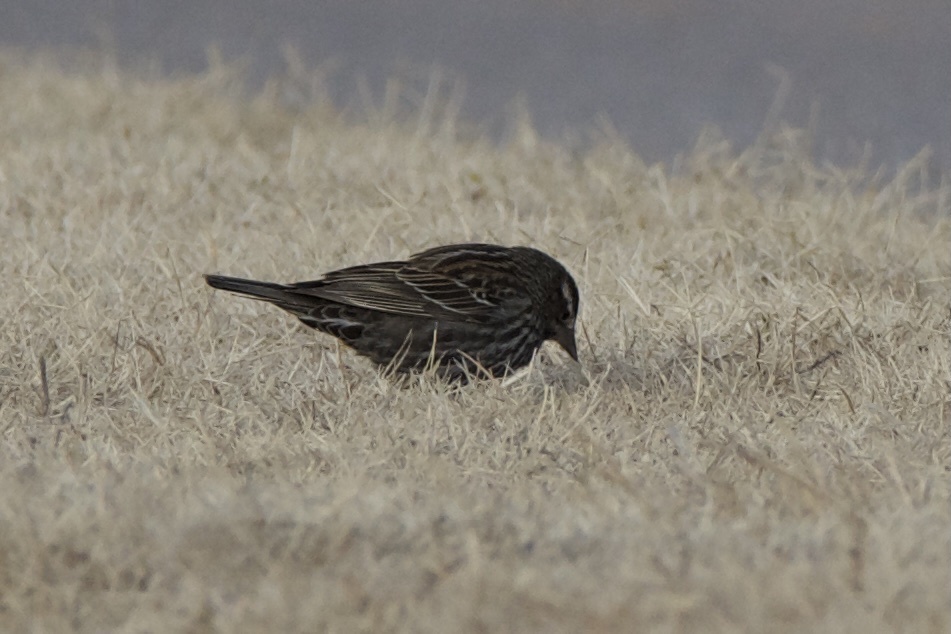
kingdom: Animalia
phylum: Chordata
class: Aves
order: Passeriformes
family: Icteridae
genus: Agelaius
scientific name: Agelaius phoeniceus
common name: Red-winged blackbird
